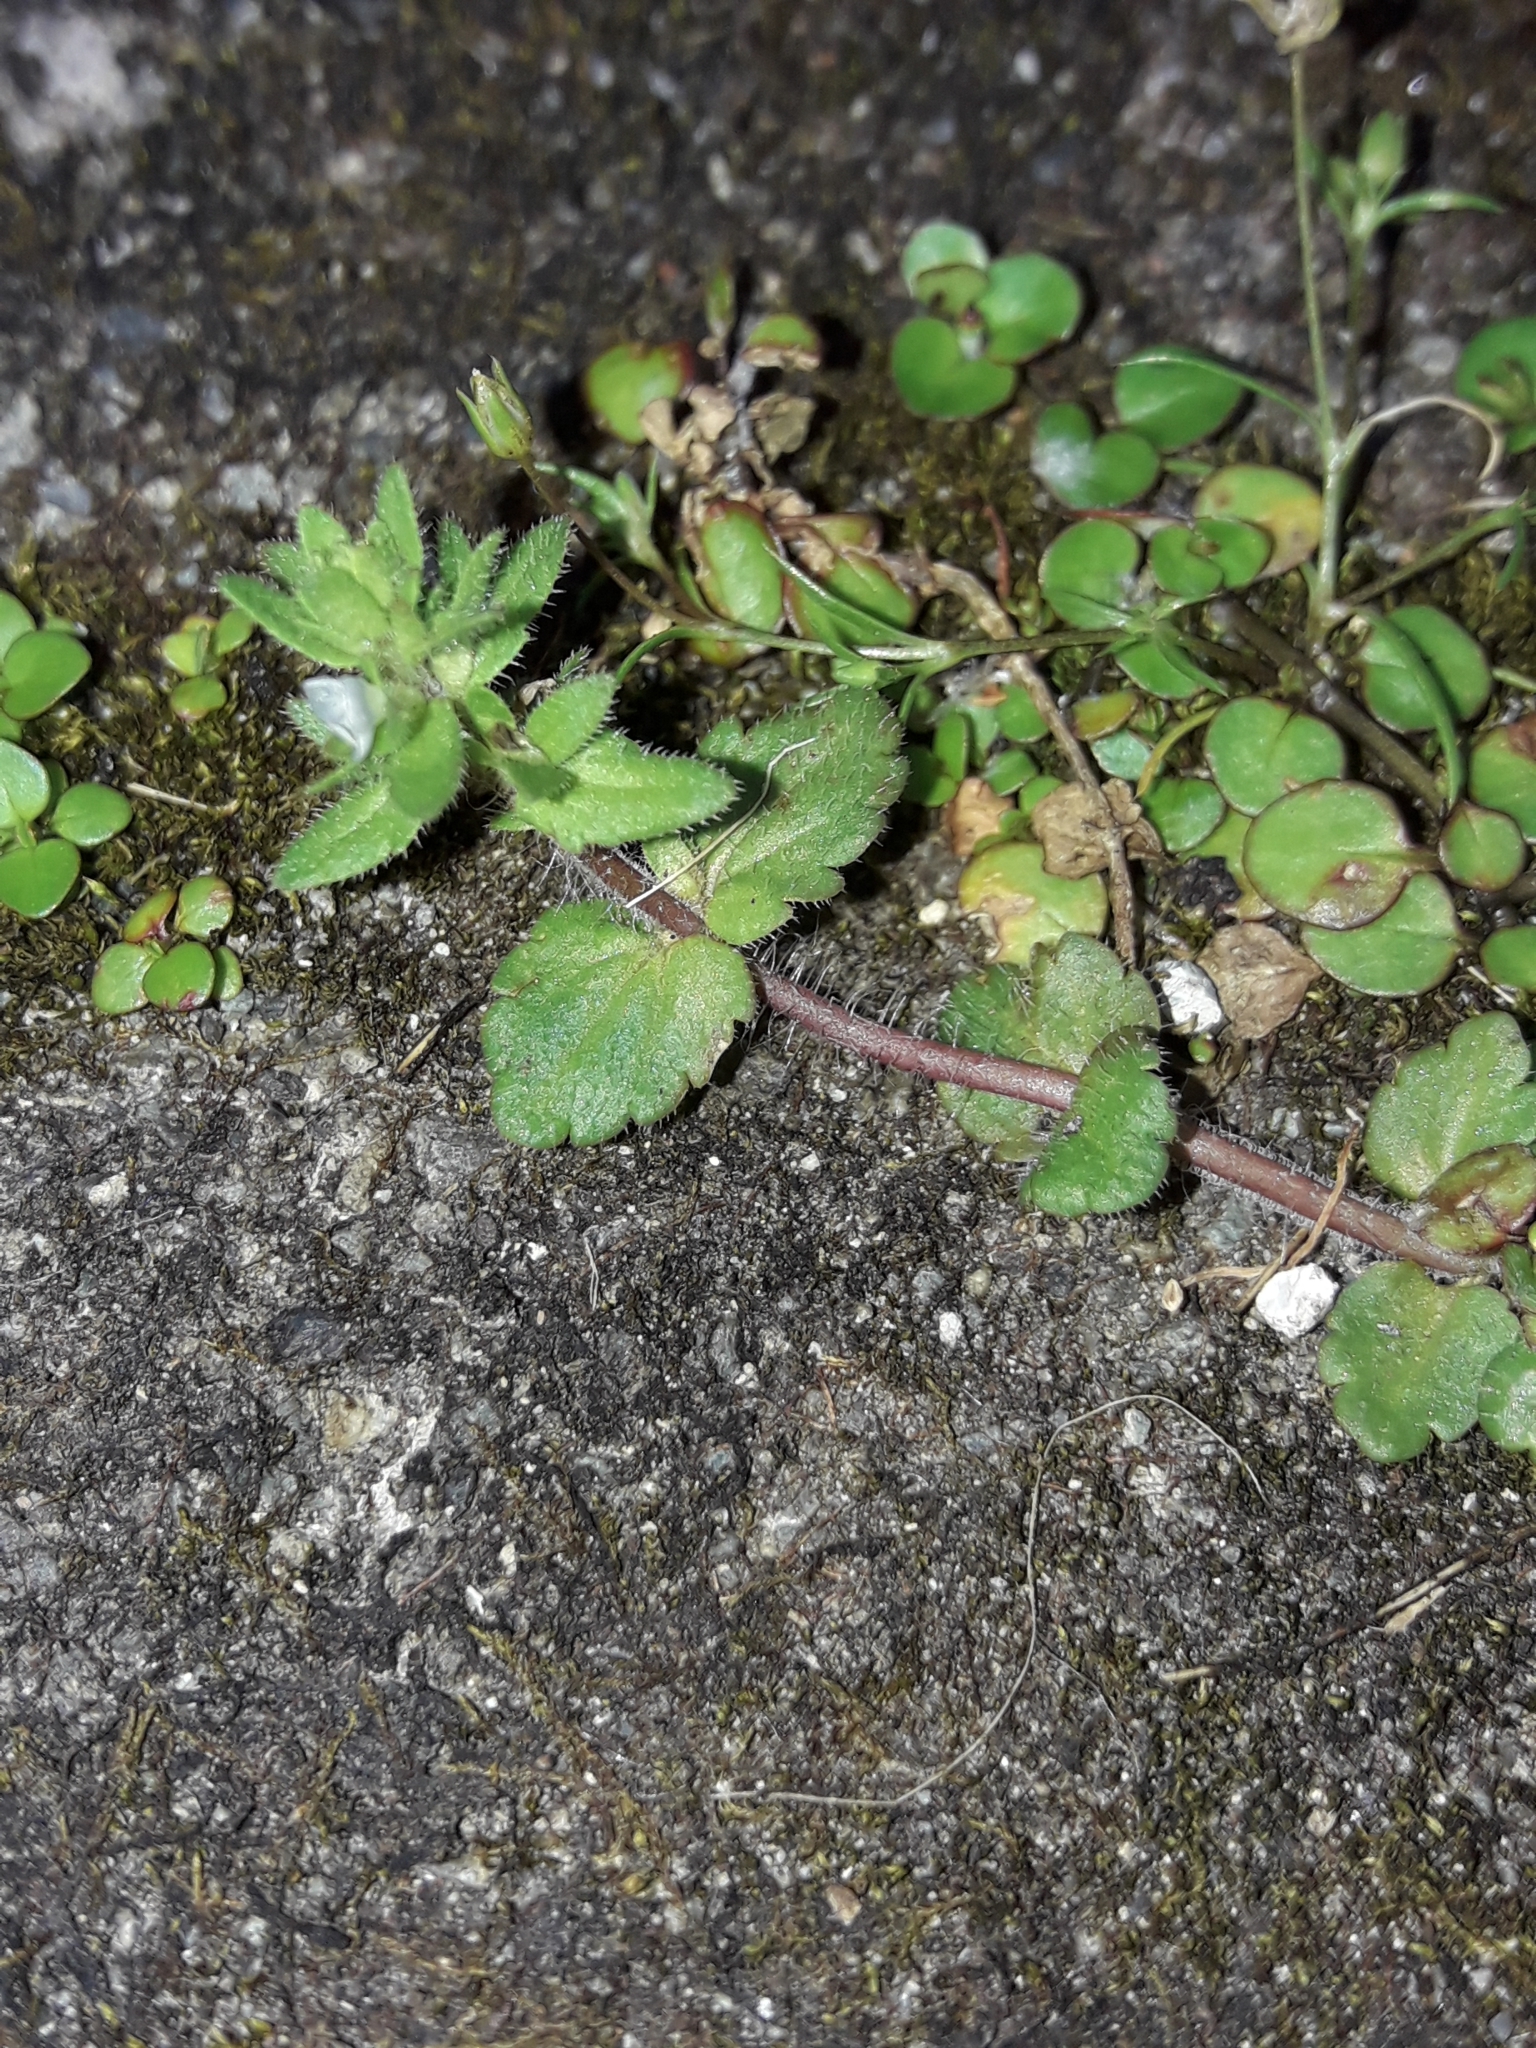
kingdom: Plantae
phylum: Tracheophyta
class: Magnoliopsida
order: Lamiales
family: Plantaginaceae
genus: Veronica
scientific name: Veronica arvensis
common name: Corn speedwell
